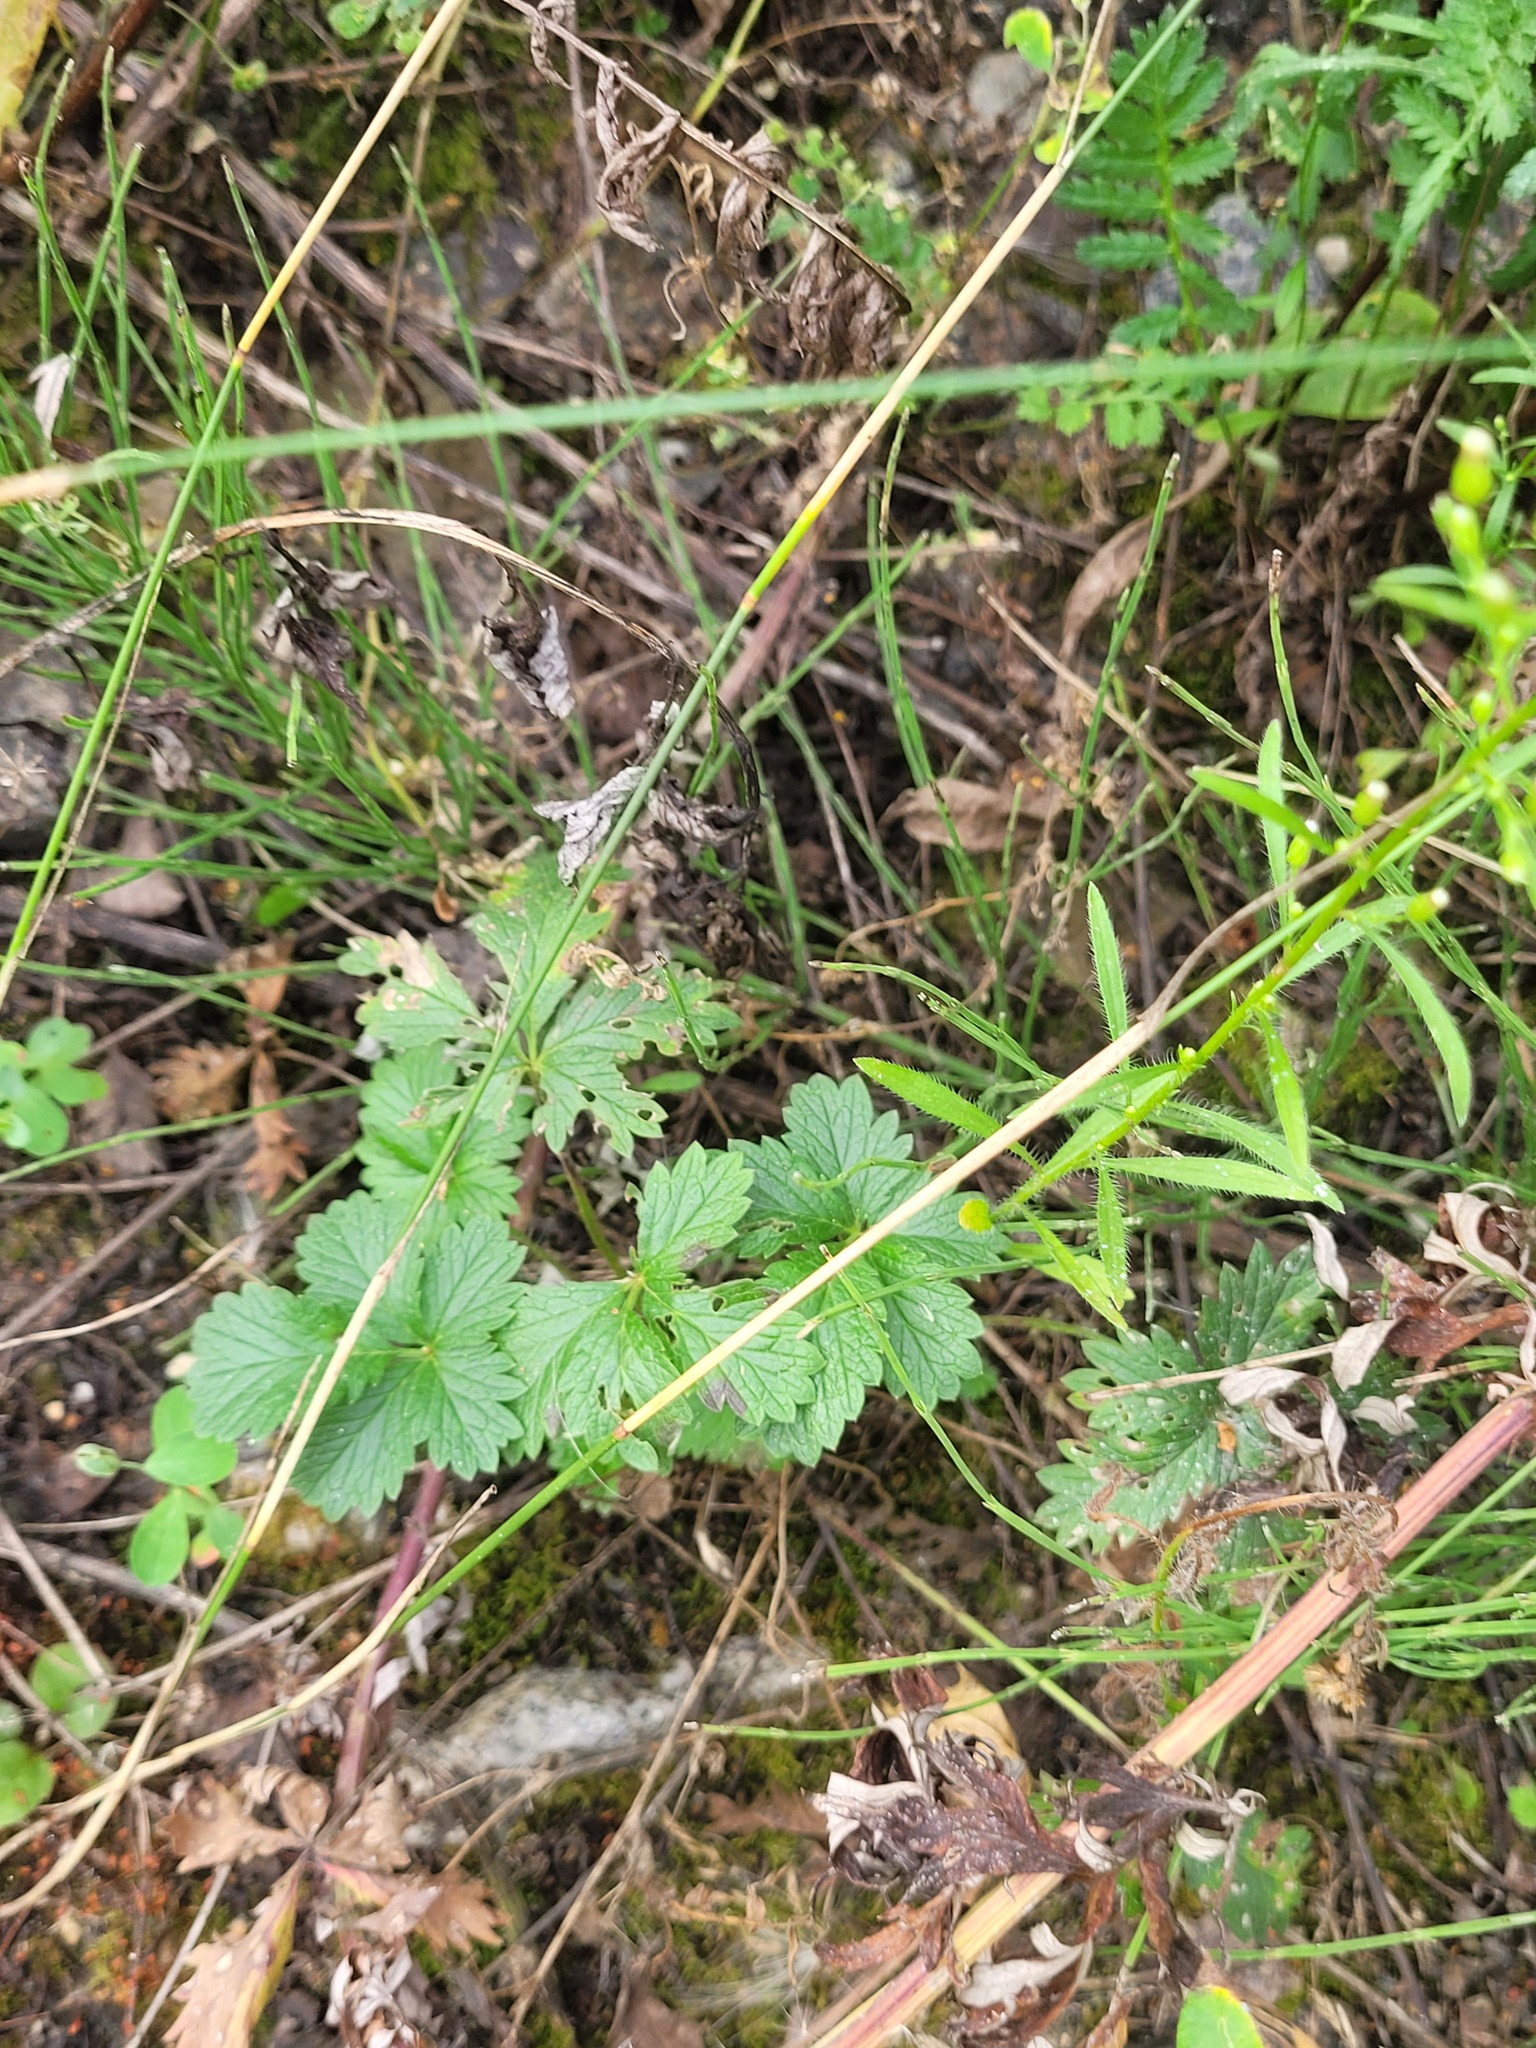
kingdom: Plantae
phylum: Tracheophyta
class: Magnoliopsida
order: Rosales
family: Rosaceae
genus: Potentilla
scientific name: Potentilla intermedia
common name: Downy cinquefoil
